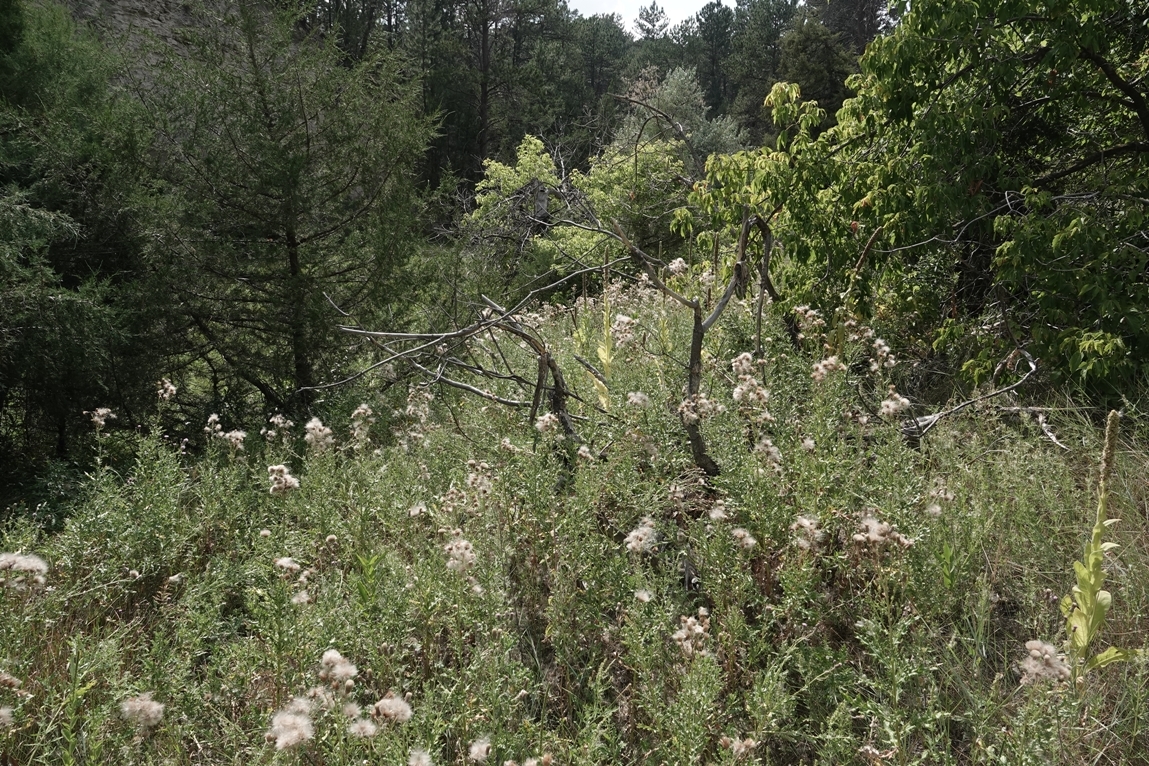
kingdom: Plantae
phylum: Tracheophyta
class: Magnoliopsida
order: Asterales
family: Asteraceae
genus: Cirsium
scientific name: Cirsium arvense
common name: Creeping thistle
